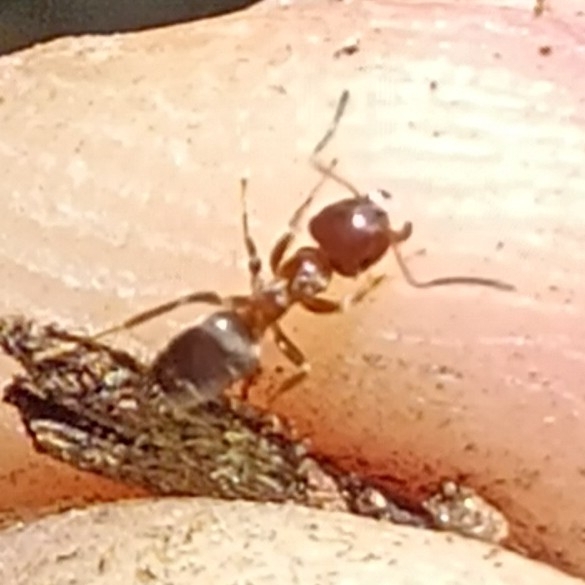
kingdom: Animalia
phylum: Arthropoda
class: Insecta
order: Hymenoptera
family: Formicidae
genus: Lasius
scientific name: Lasius brunneus
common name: Brown ant
